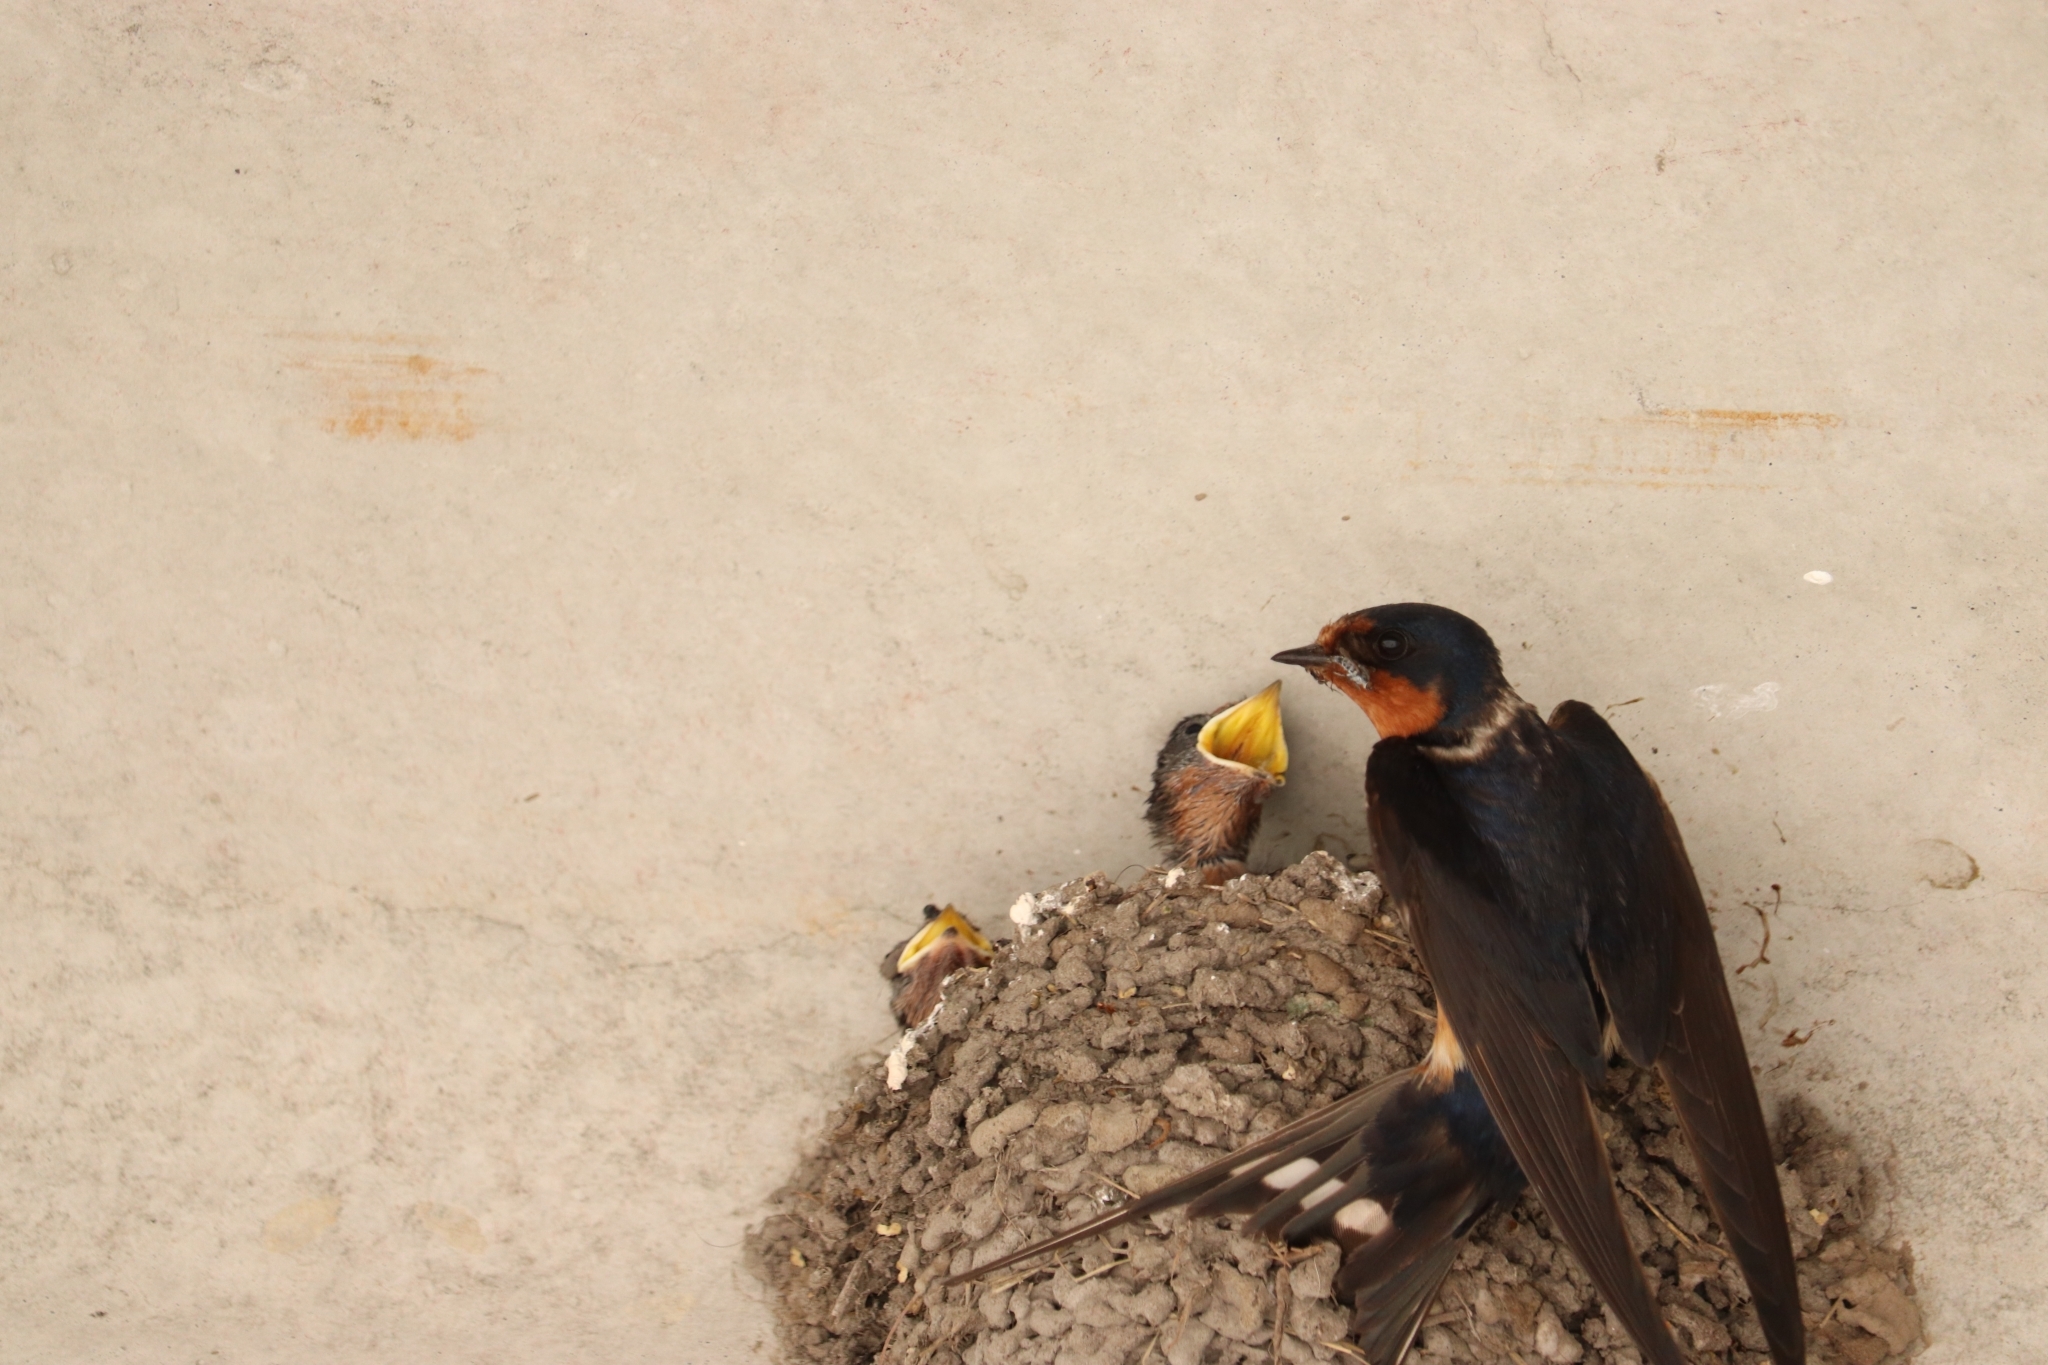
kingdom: Animalia
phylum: Chordata
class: Aves
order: Passeriformes
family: Hirundinidae
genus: Hirundo
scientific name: Hirundo rustica
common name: Barn swallow
